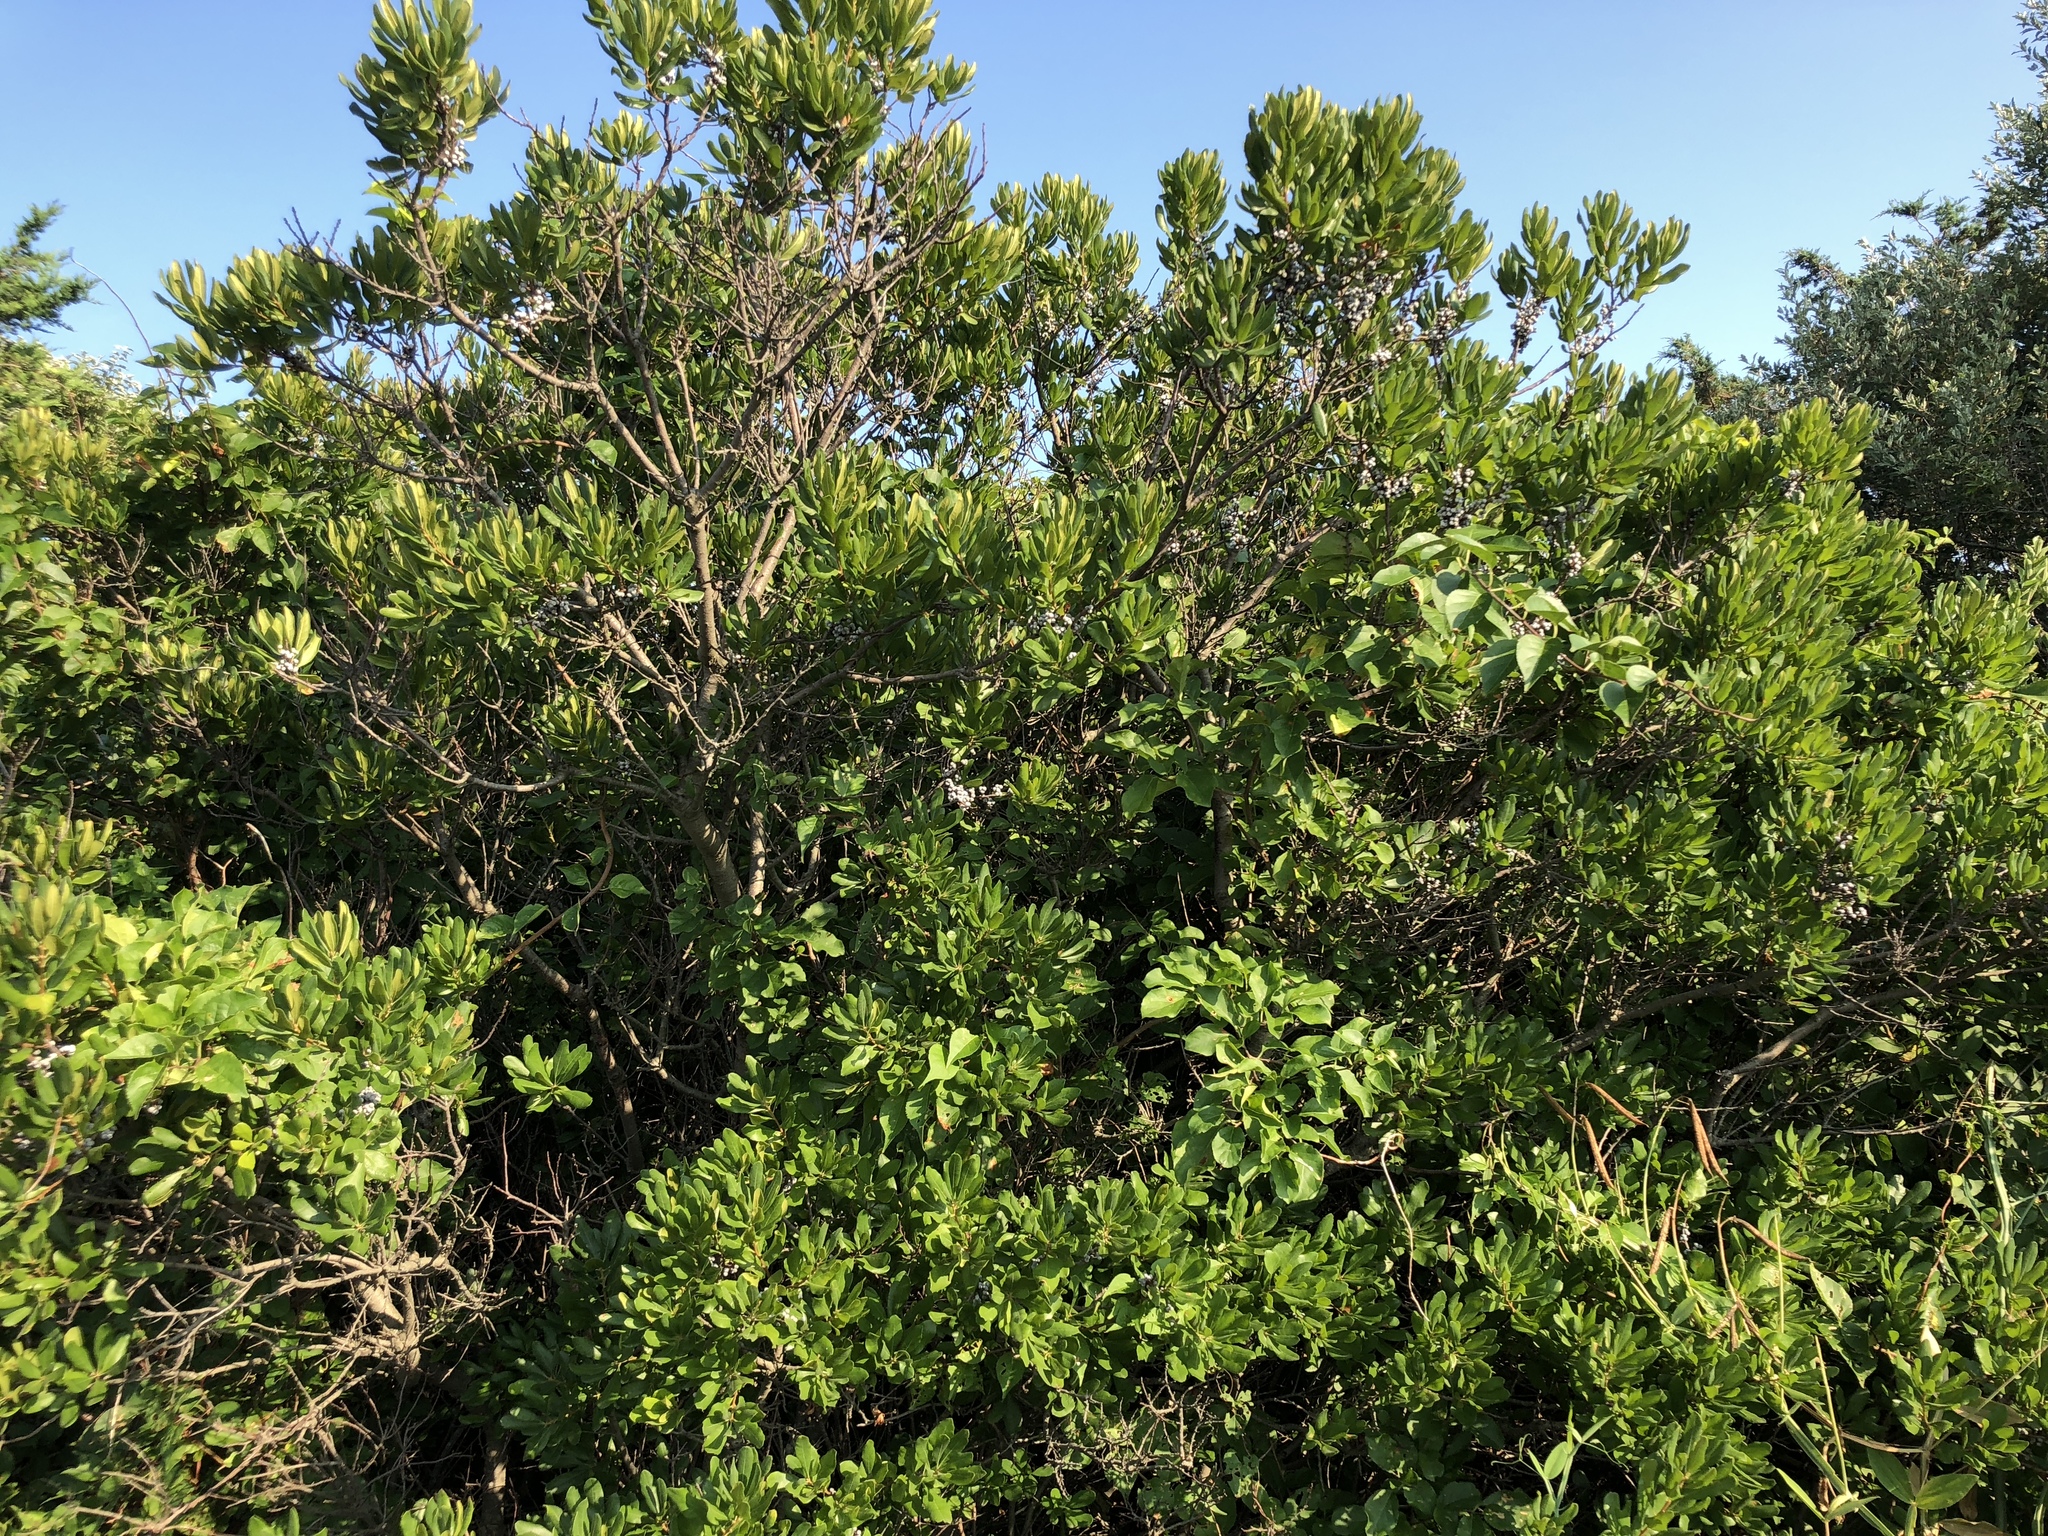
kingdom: Plantae
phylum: Tracheophyta
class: Magnoliopsida
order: Fagales
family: Myricaceae
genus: Morella
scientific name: Morella pensylvanica
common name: Northern bayberry
